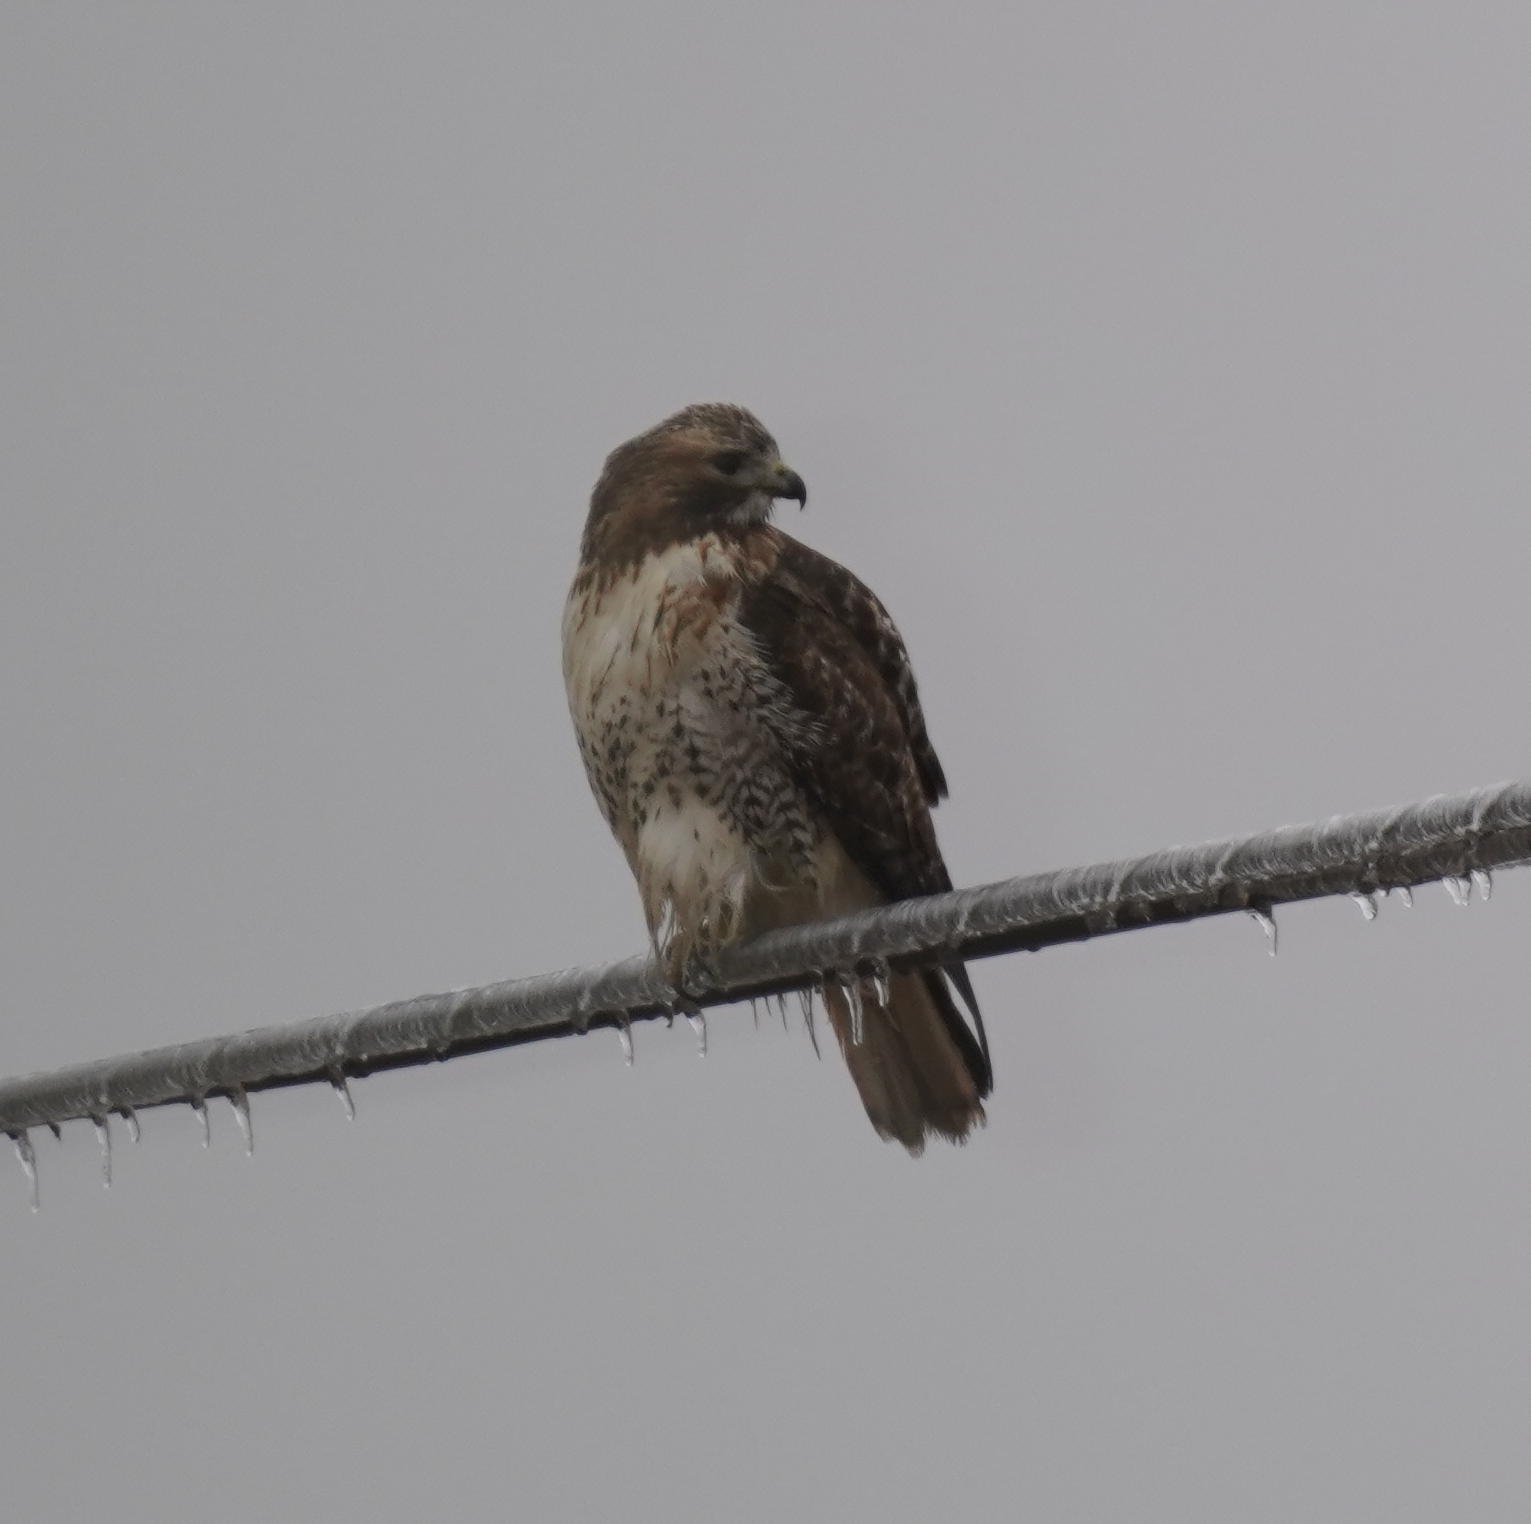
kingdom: Animalia
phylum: Chordata
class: Aves
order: Accipitriformes
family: Accipitridae
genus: Buteo
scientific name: Buteo jamaicensis
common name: Red-tailed hawk
